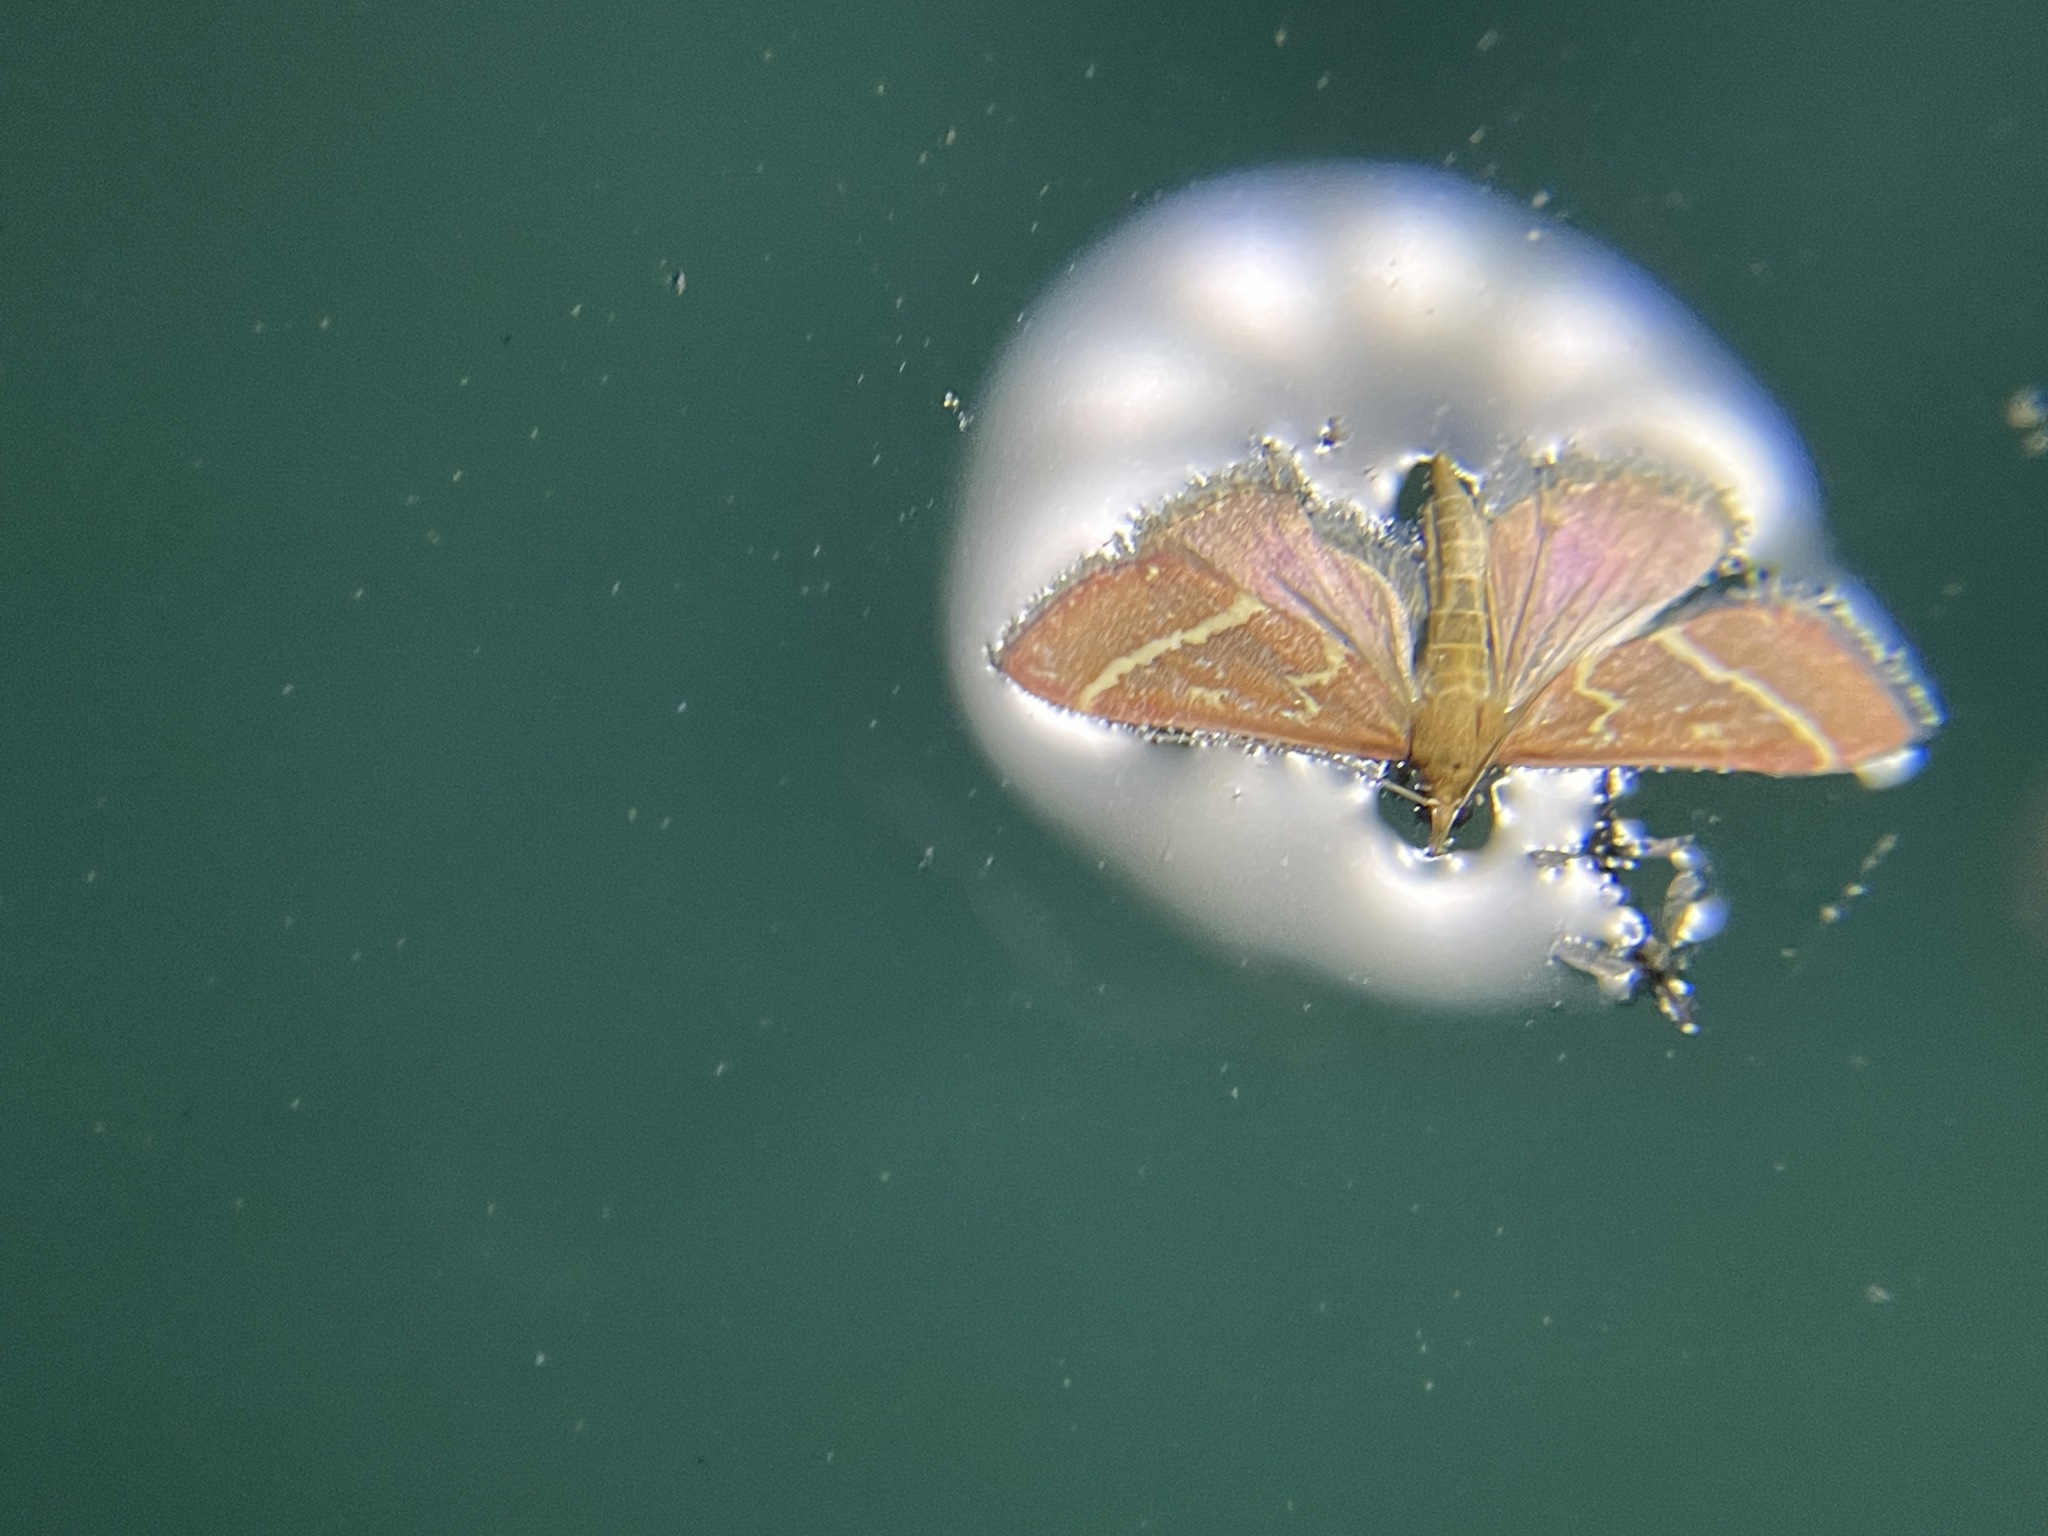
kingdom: Animalia
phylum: Arthropoda
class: Insecta
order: Lepidoptera
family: Crambidae
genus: Pyrausta
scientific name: Pyrausta volupialis
